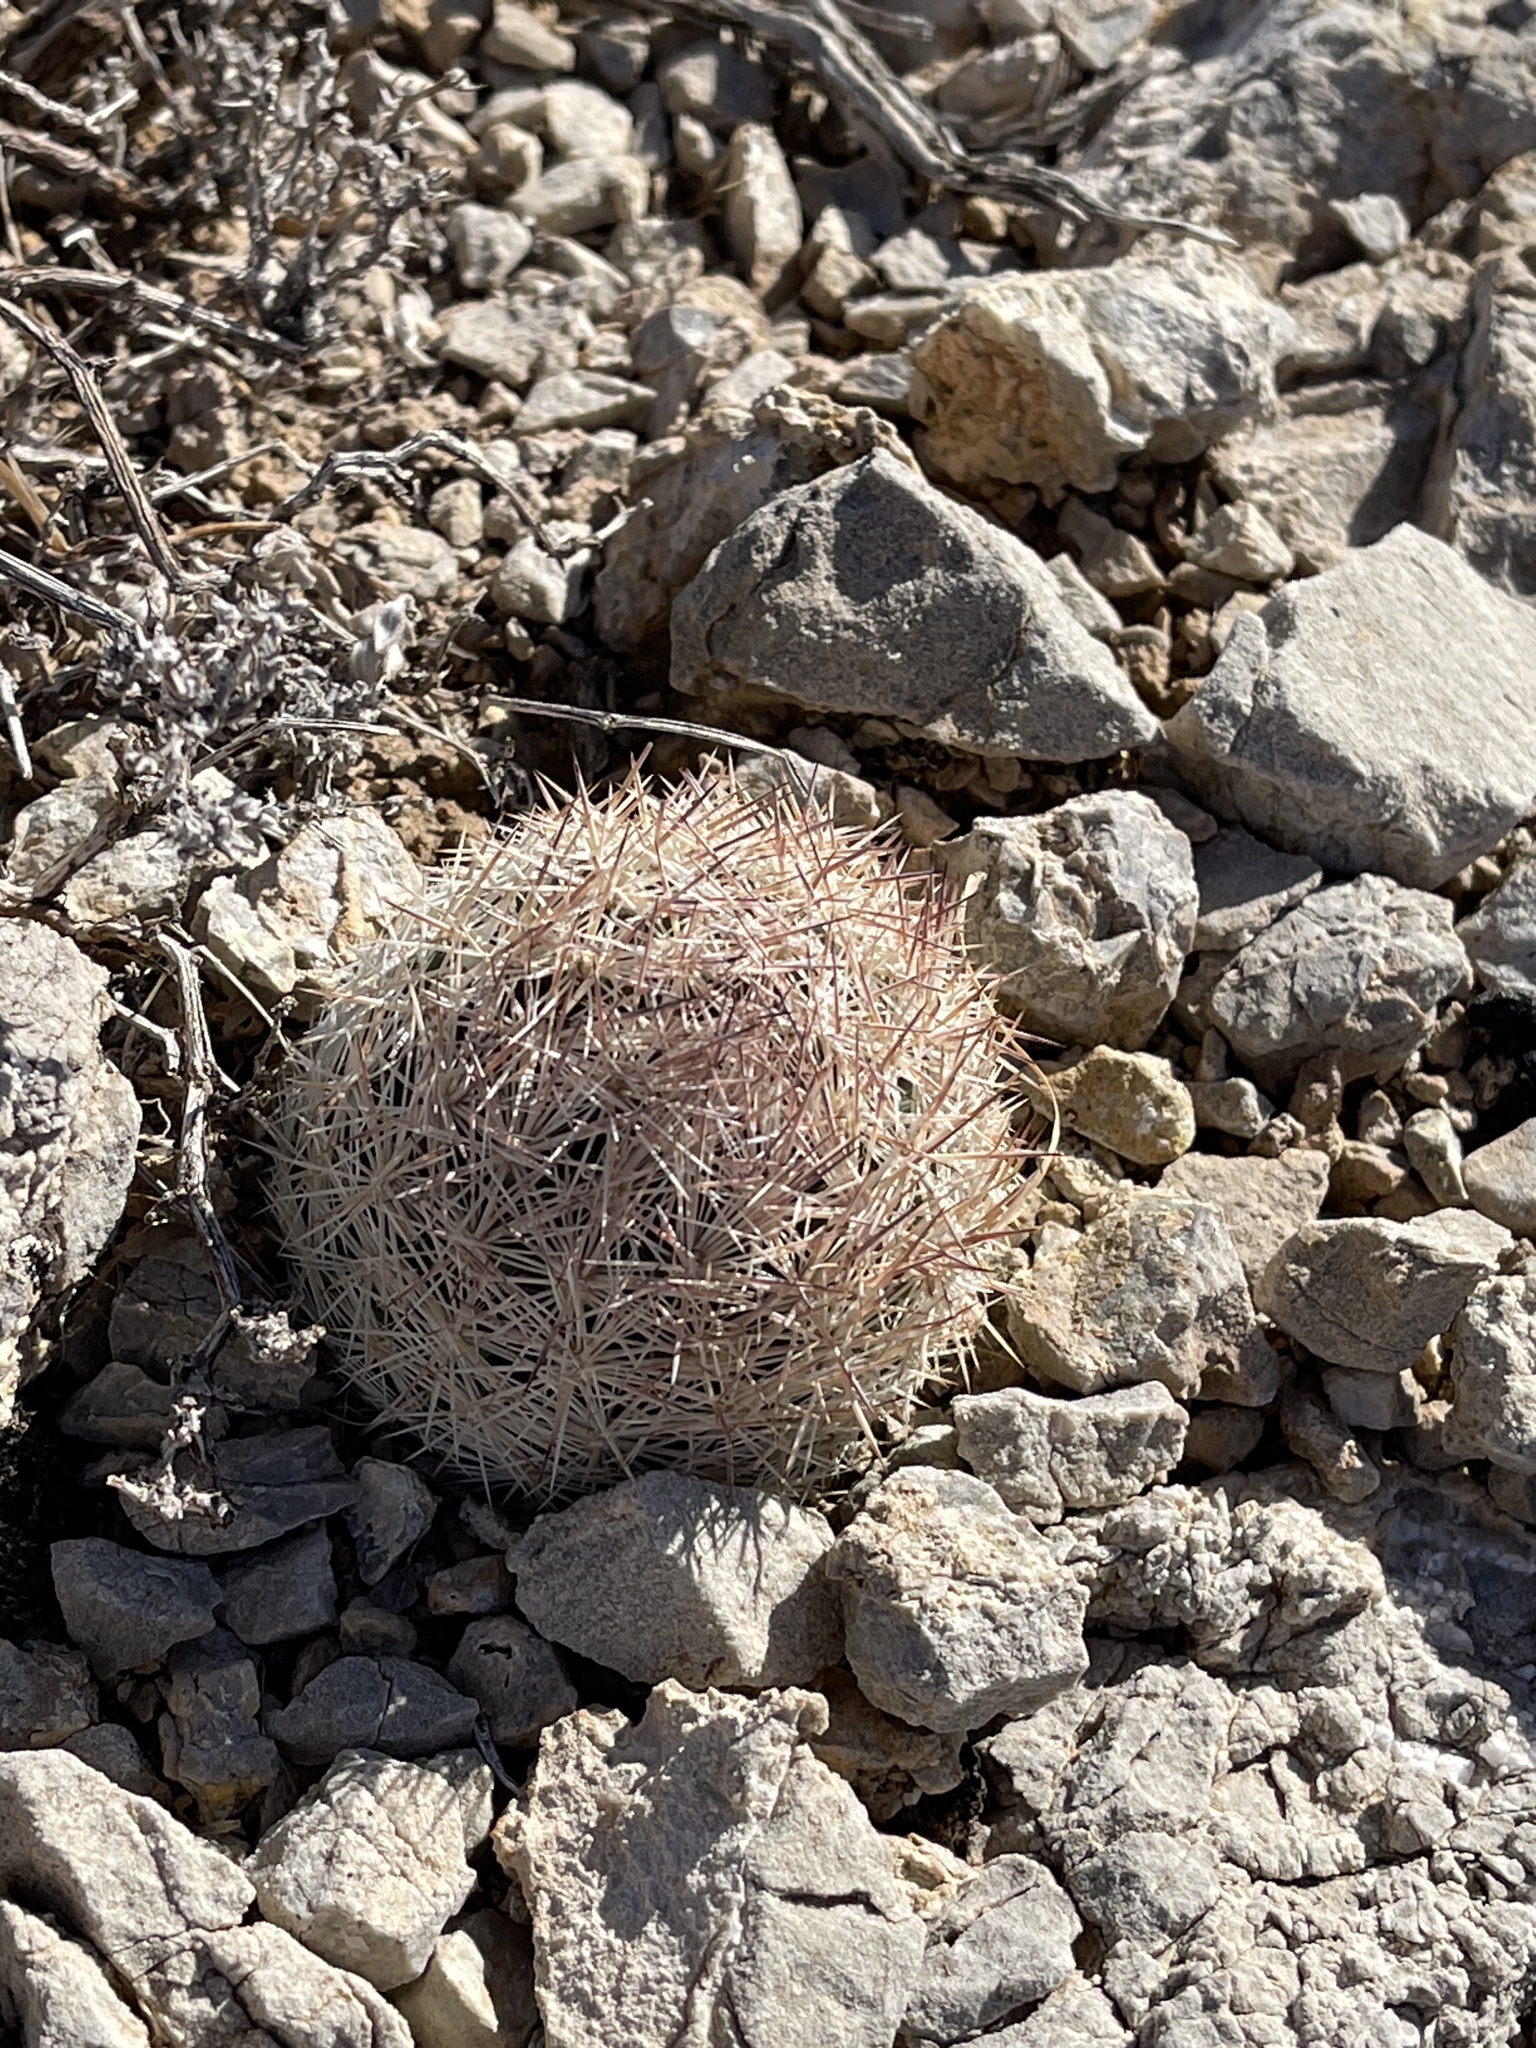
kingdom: Plantae
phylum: Tracheophyta
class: Magnoliopsida
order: Caryophyllales
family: Cactaceae
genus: Pelecyphora
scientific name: Pelecyphora dasyacantha
